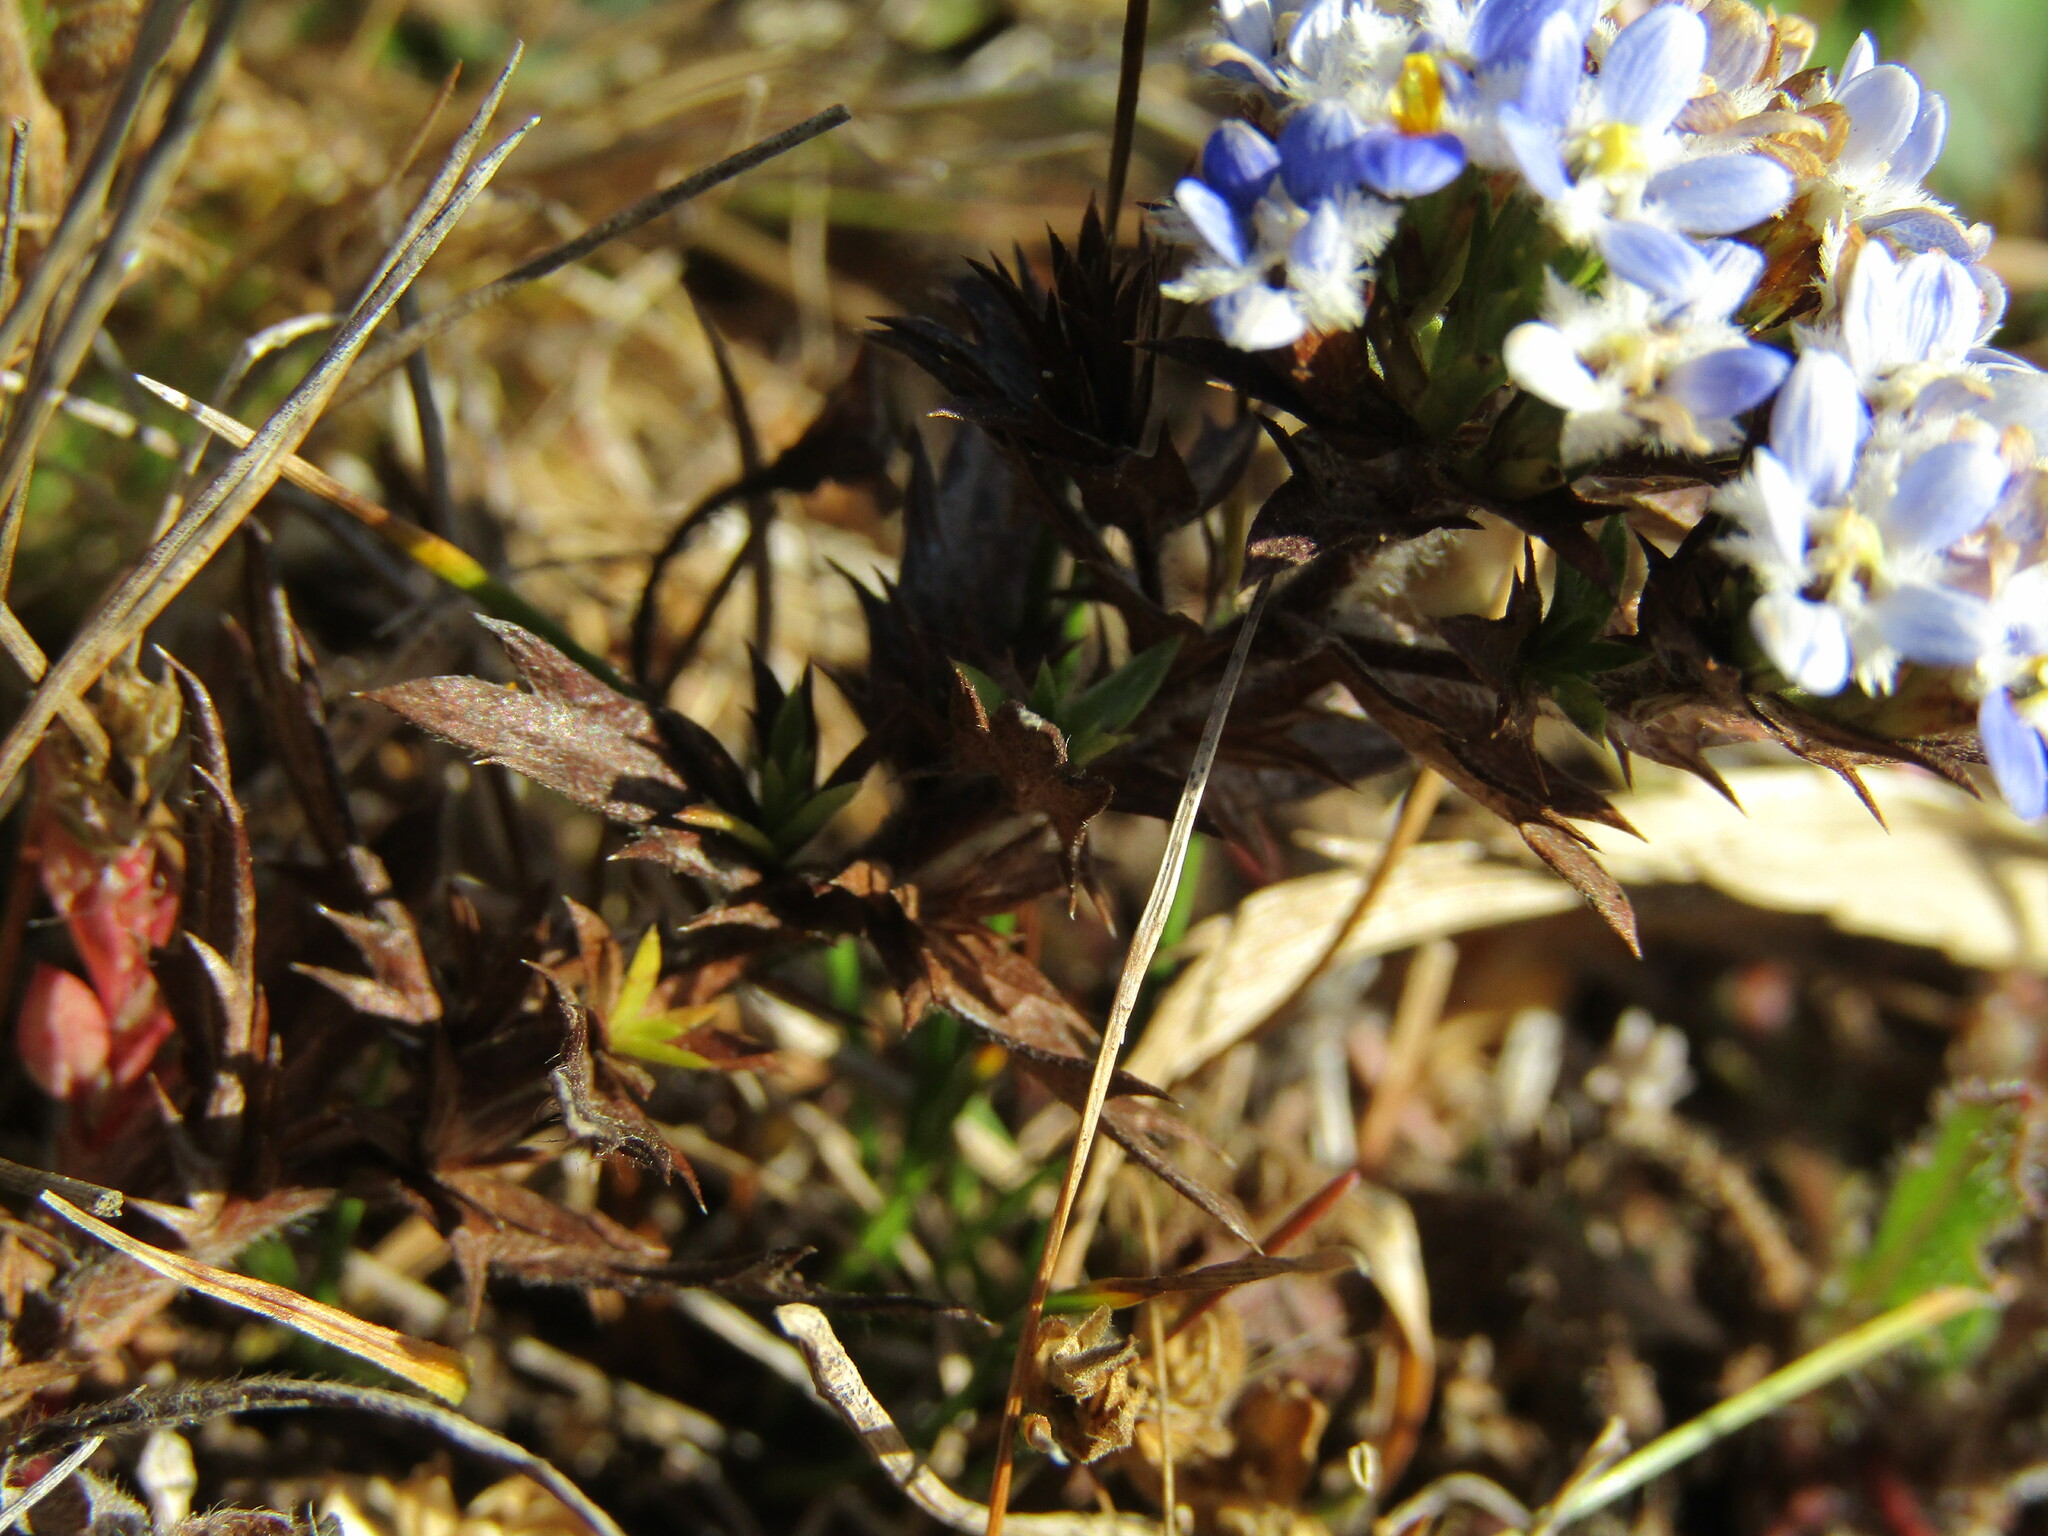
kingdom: Plantae
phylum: Tracheophyta
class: Magnoliopsida
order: Asterales
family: Asteraceae
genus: Triptilion
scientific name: Triptilion spinosum
